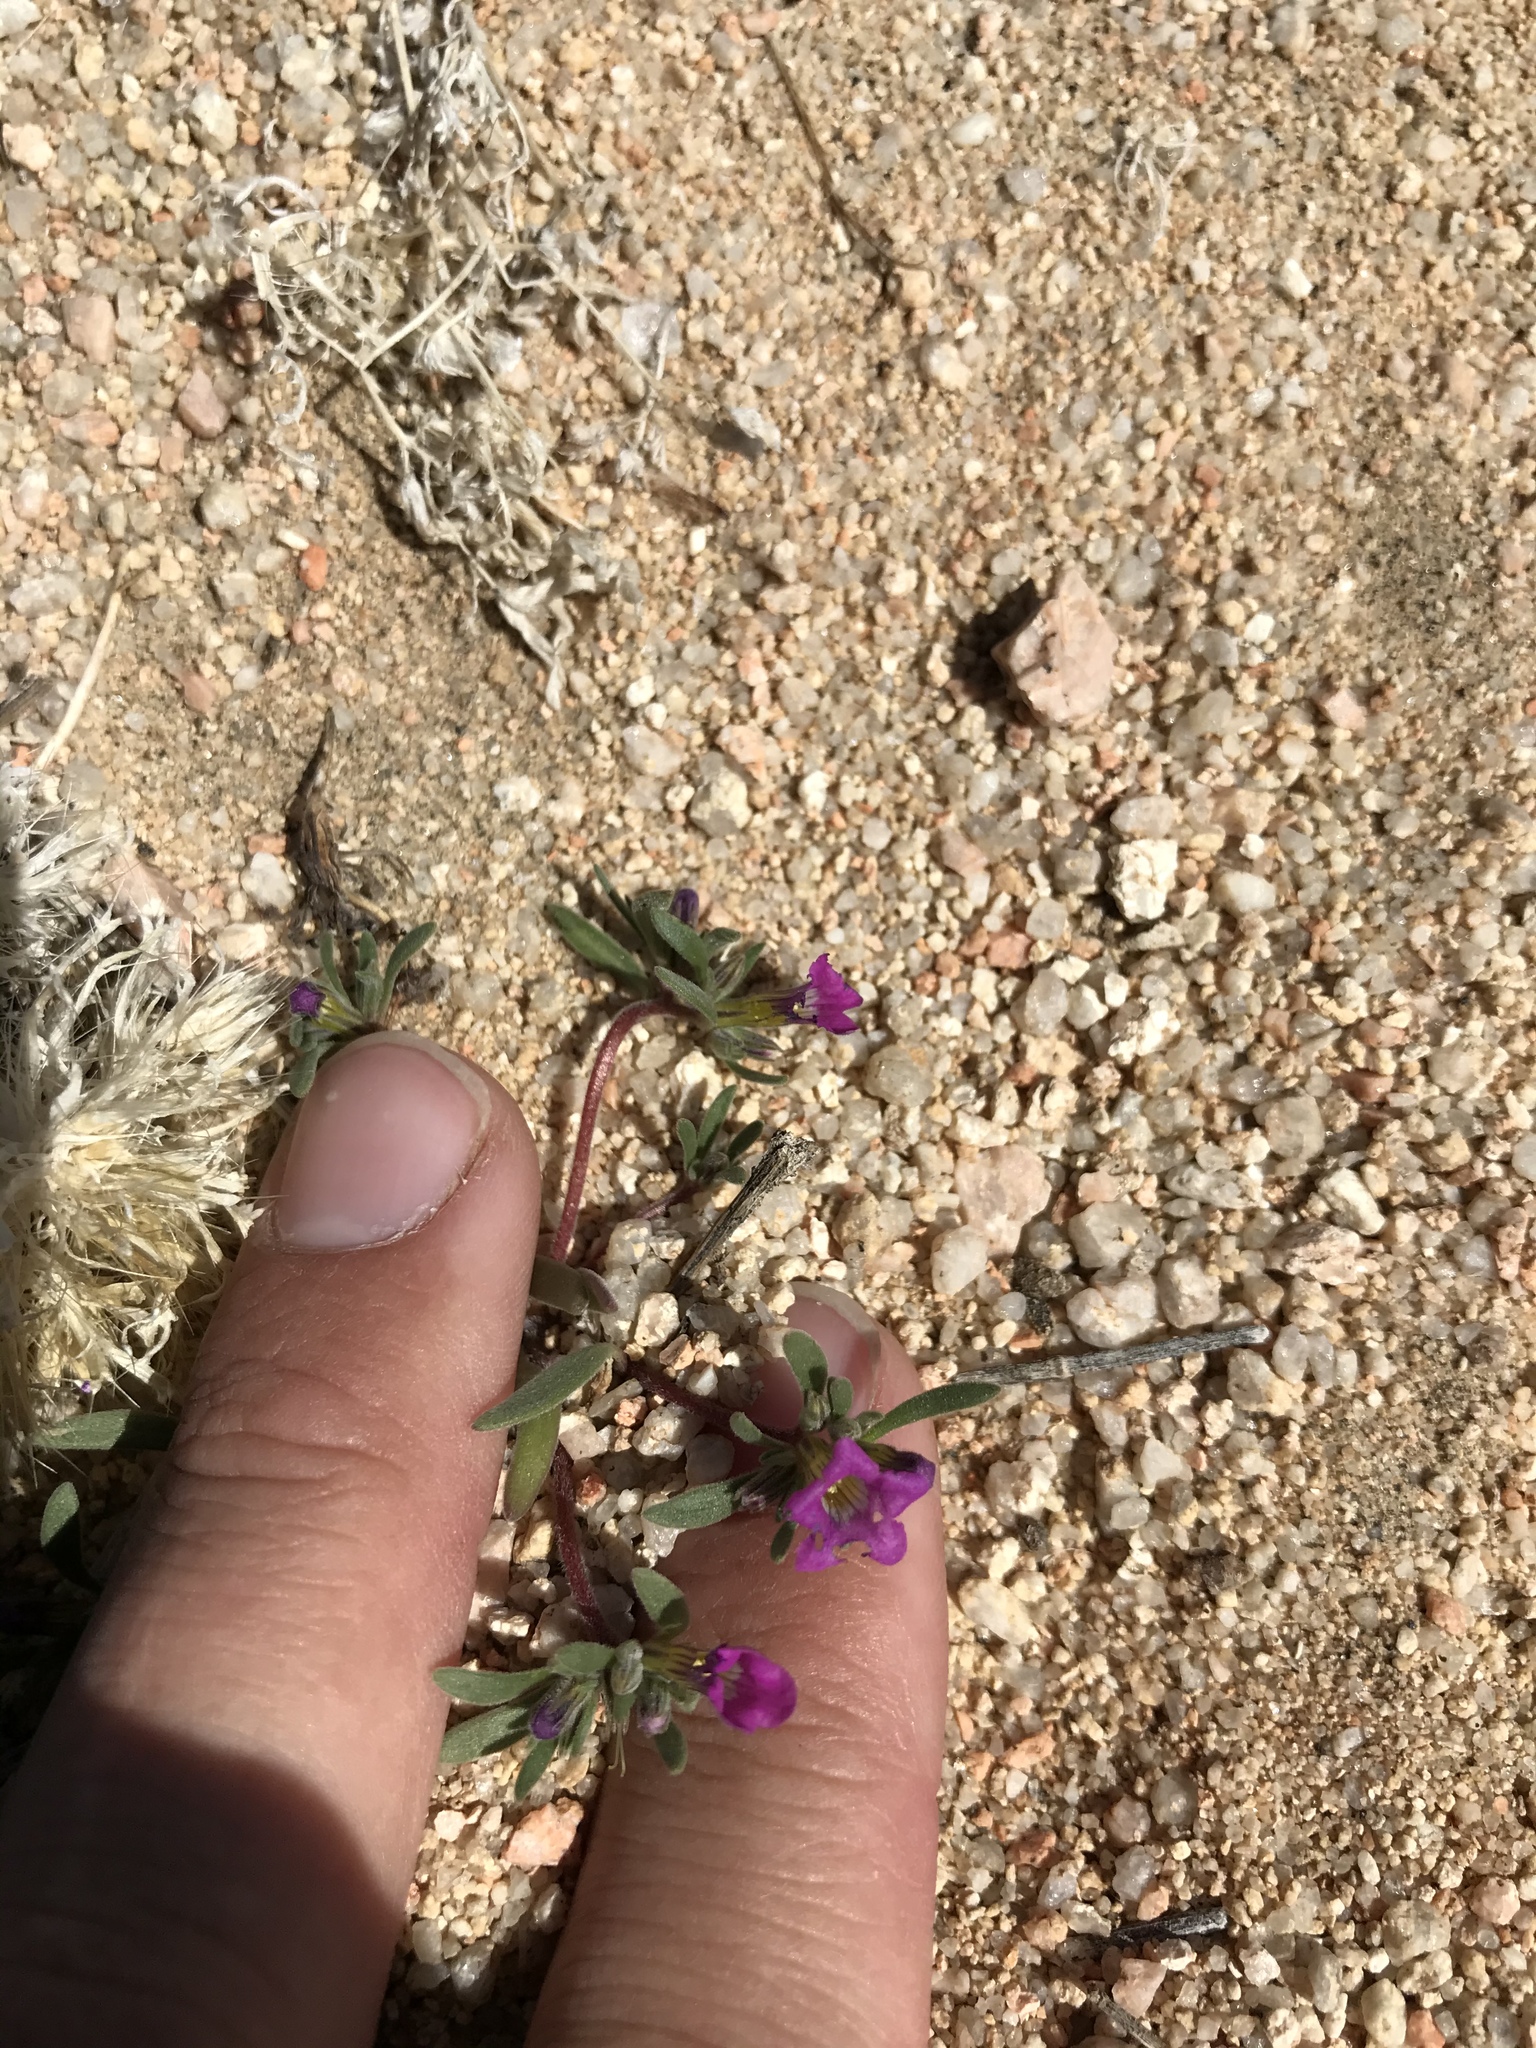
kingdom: Plantae
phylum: Tracheophyta
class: Magnoliopsida
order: Boraginales
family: Namaceae
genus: Nama
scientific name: Nama demissa
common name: Leafy nama
